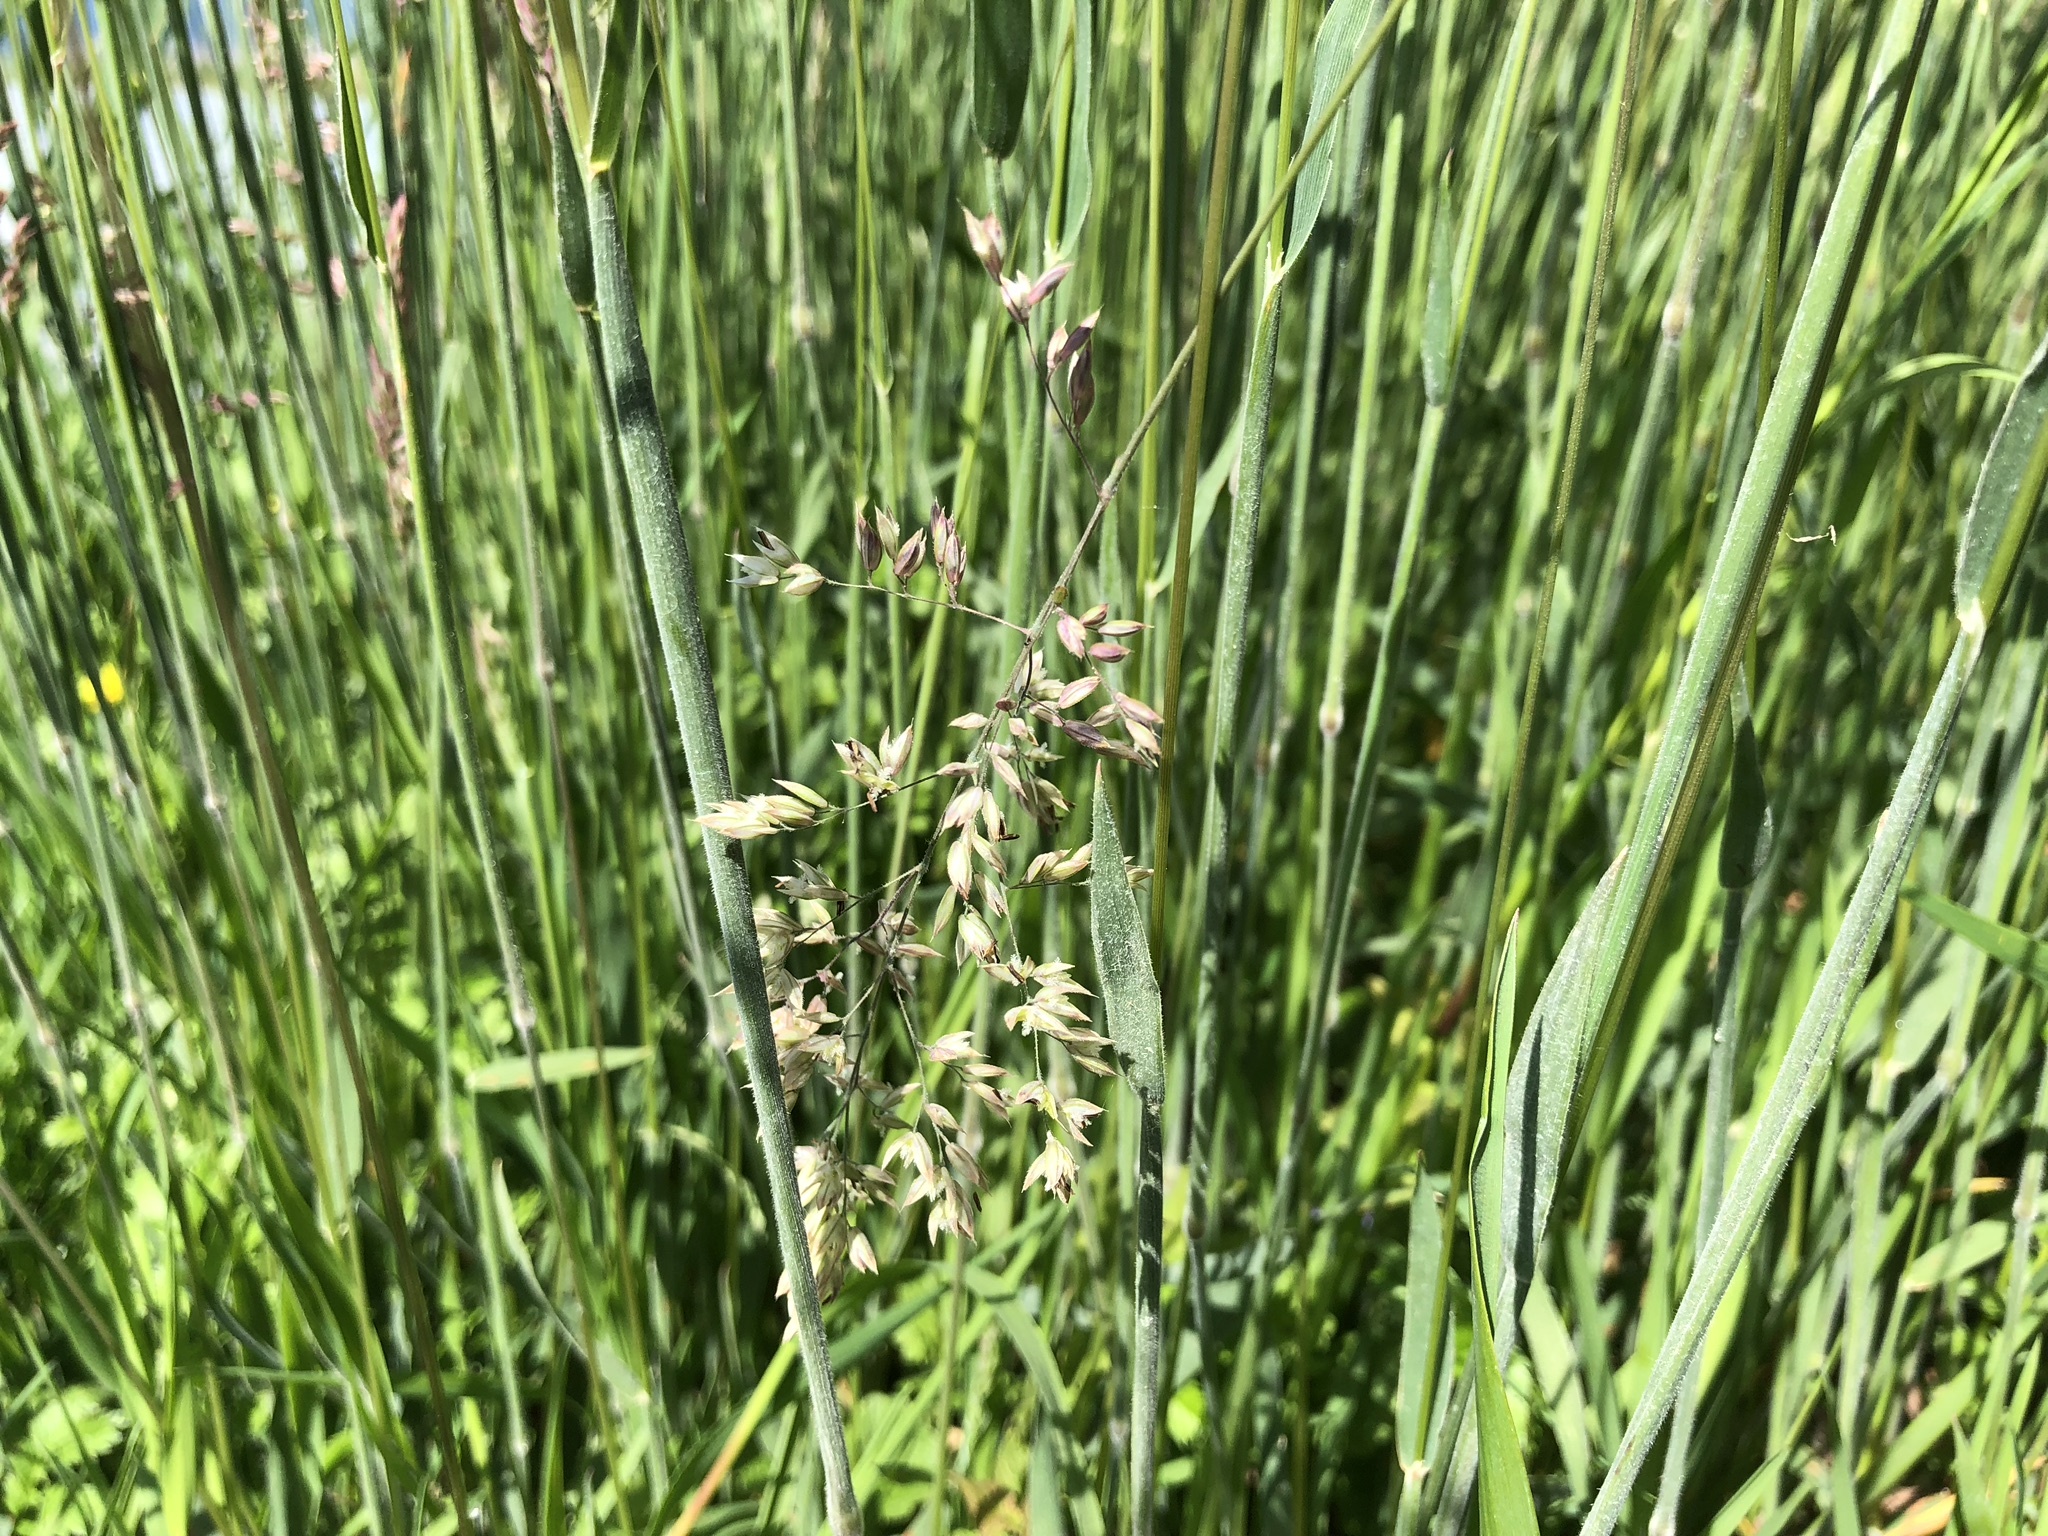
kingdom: Plantae
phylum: Tracheophyta
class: Liliopsida
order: Poales
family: Poaceae
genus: Holcus
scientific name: Holcus lanatus
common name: Yorkshire-fog
